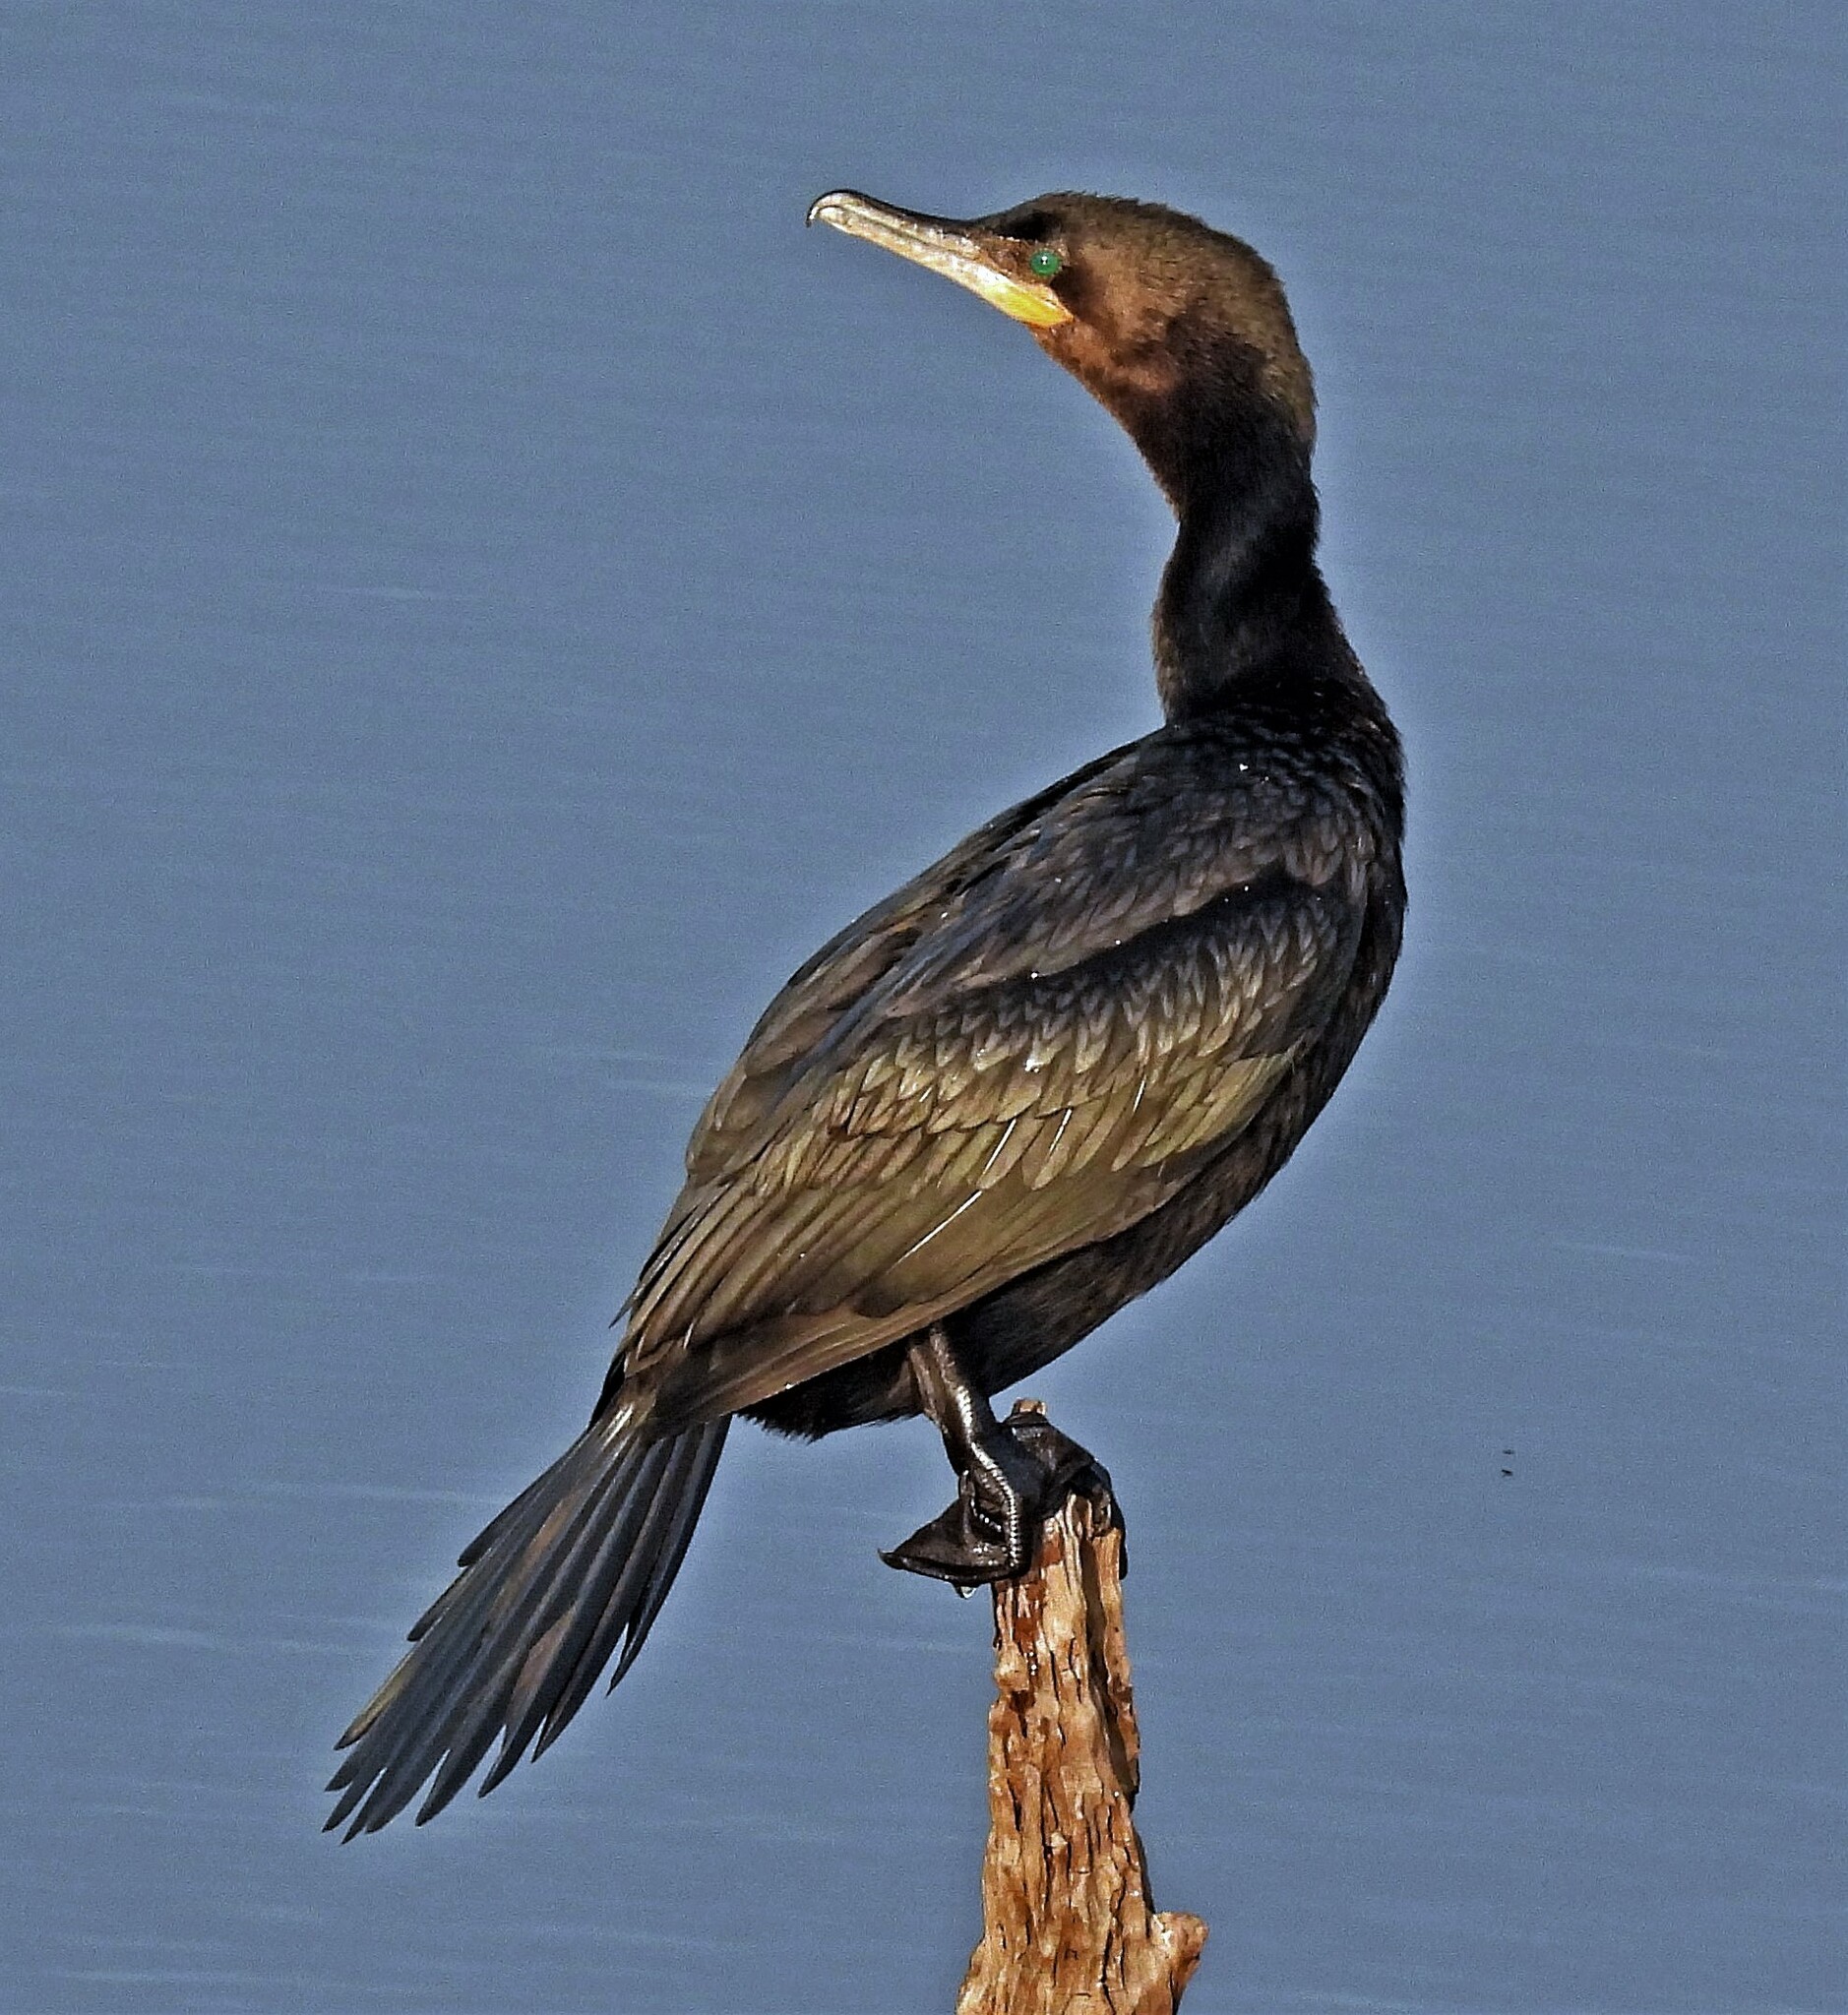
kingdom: Animalia
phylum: Chordata
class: Aves
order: Suliformes
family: Phalacrocoracidae
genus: Phalacrocorax
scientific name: Phalacrocorax brasilianus
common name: Neotropic cormorant
